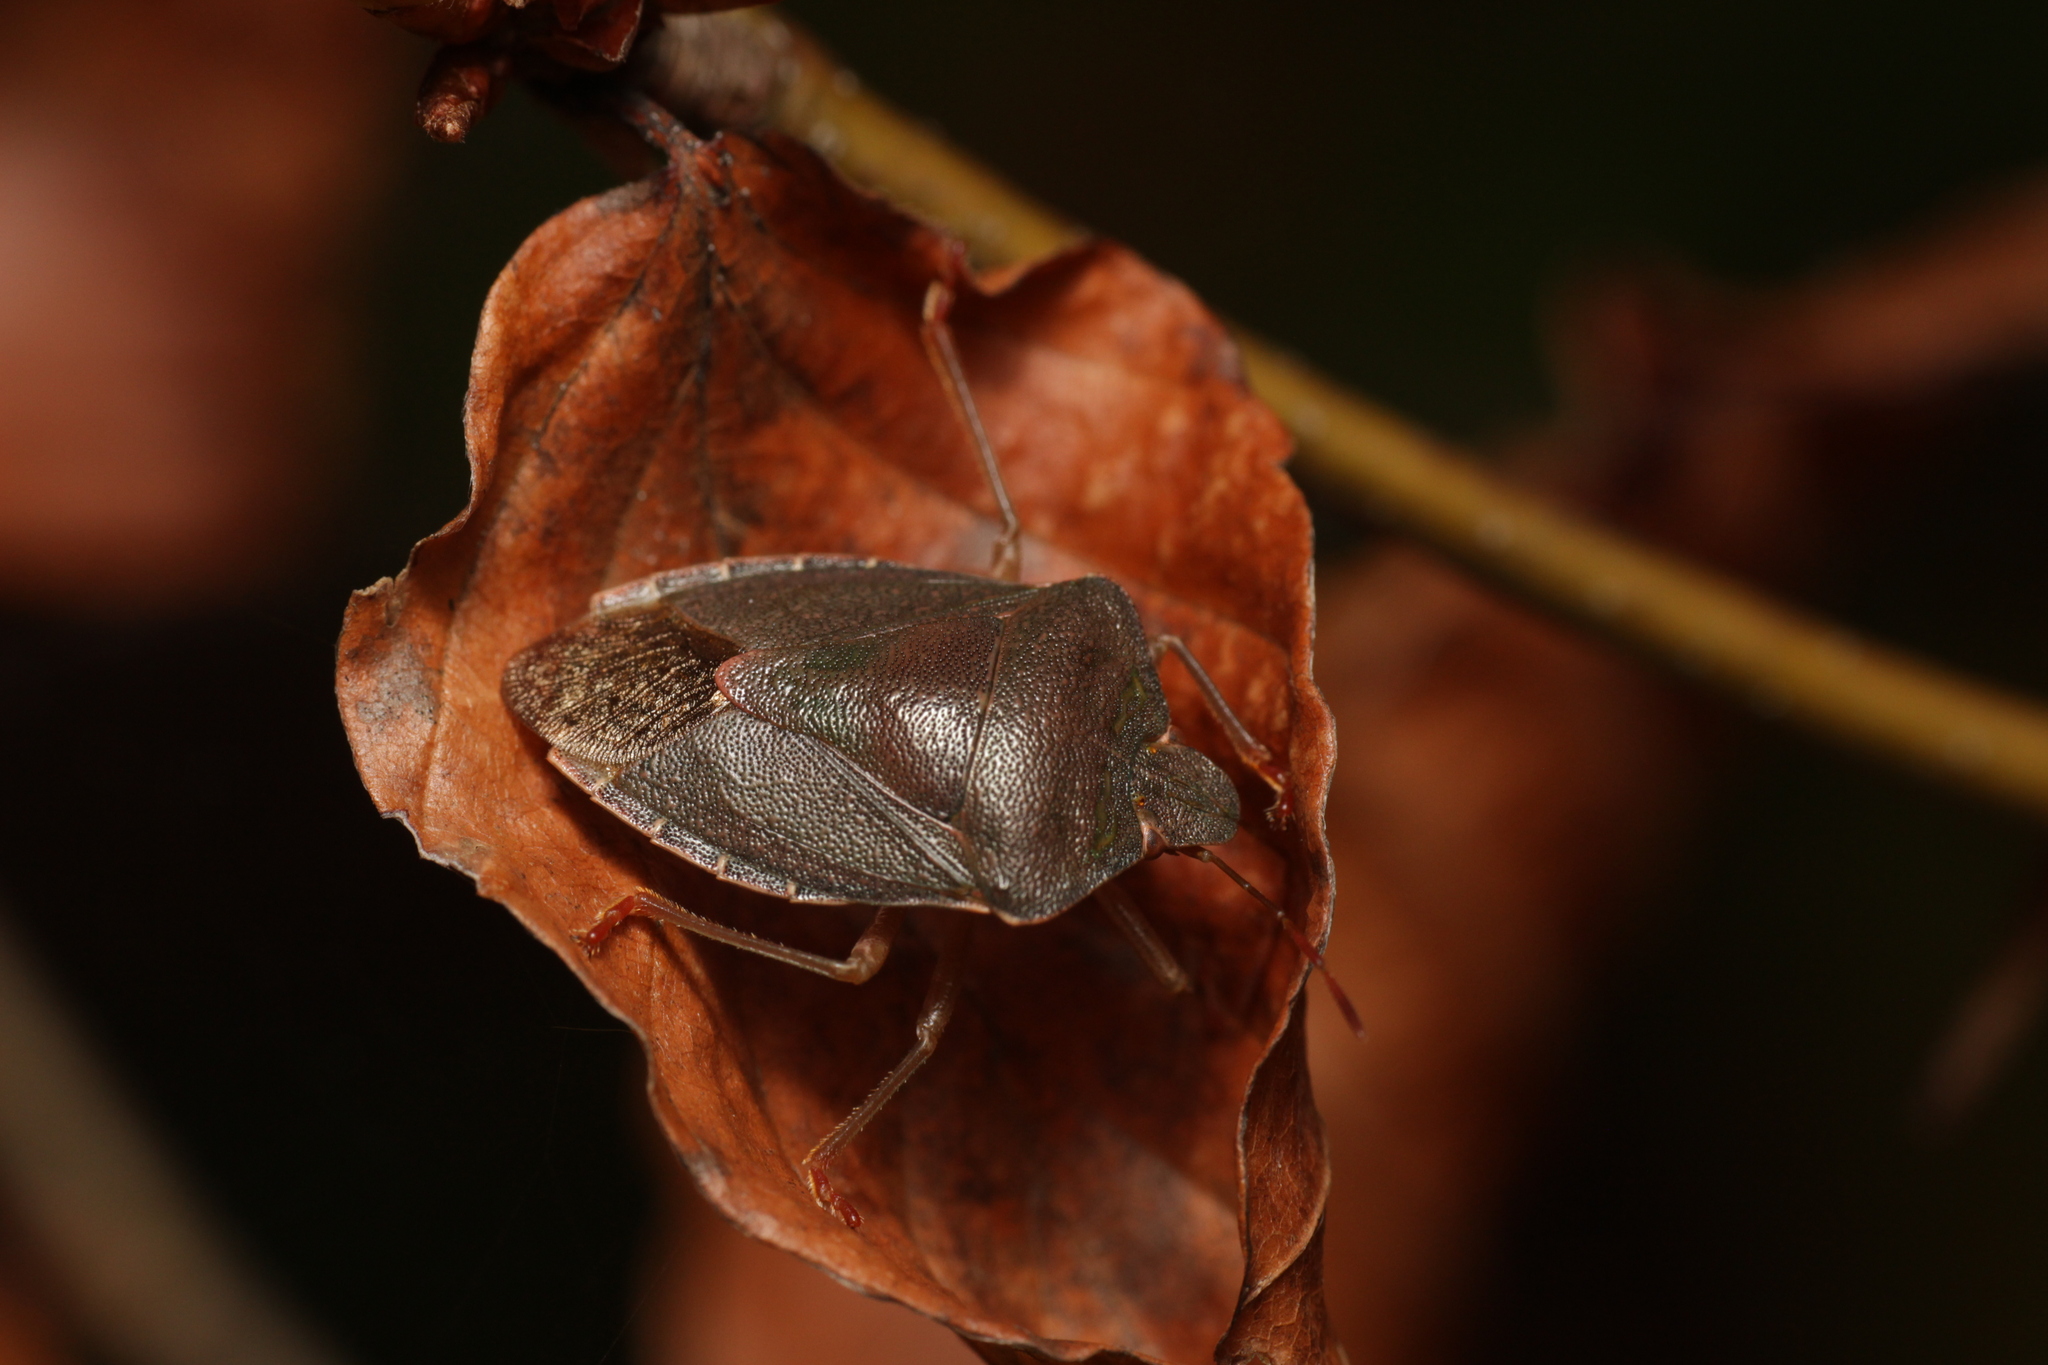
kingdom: Animalia
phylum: Arthropoda
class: Insecta
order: Hemiptera
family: Pentatomidae
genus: Palomena
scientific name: Palomena prasina
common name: Green shieldbug
